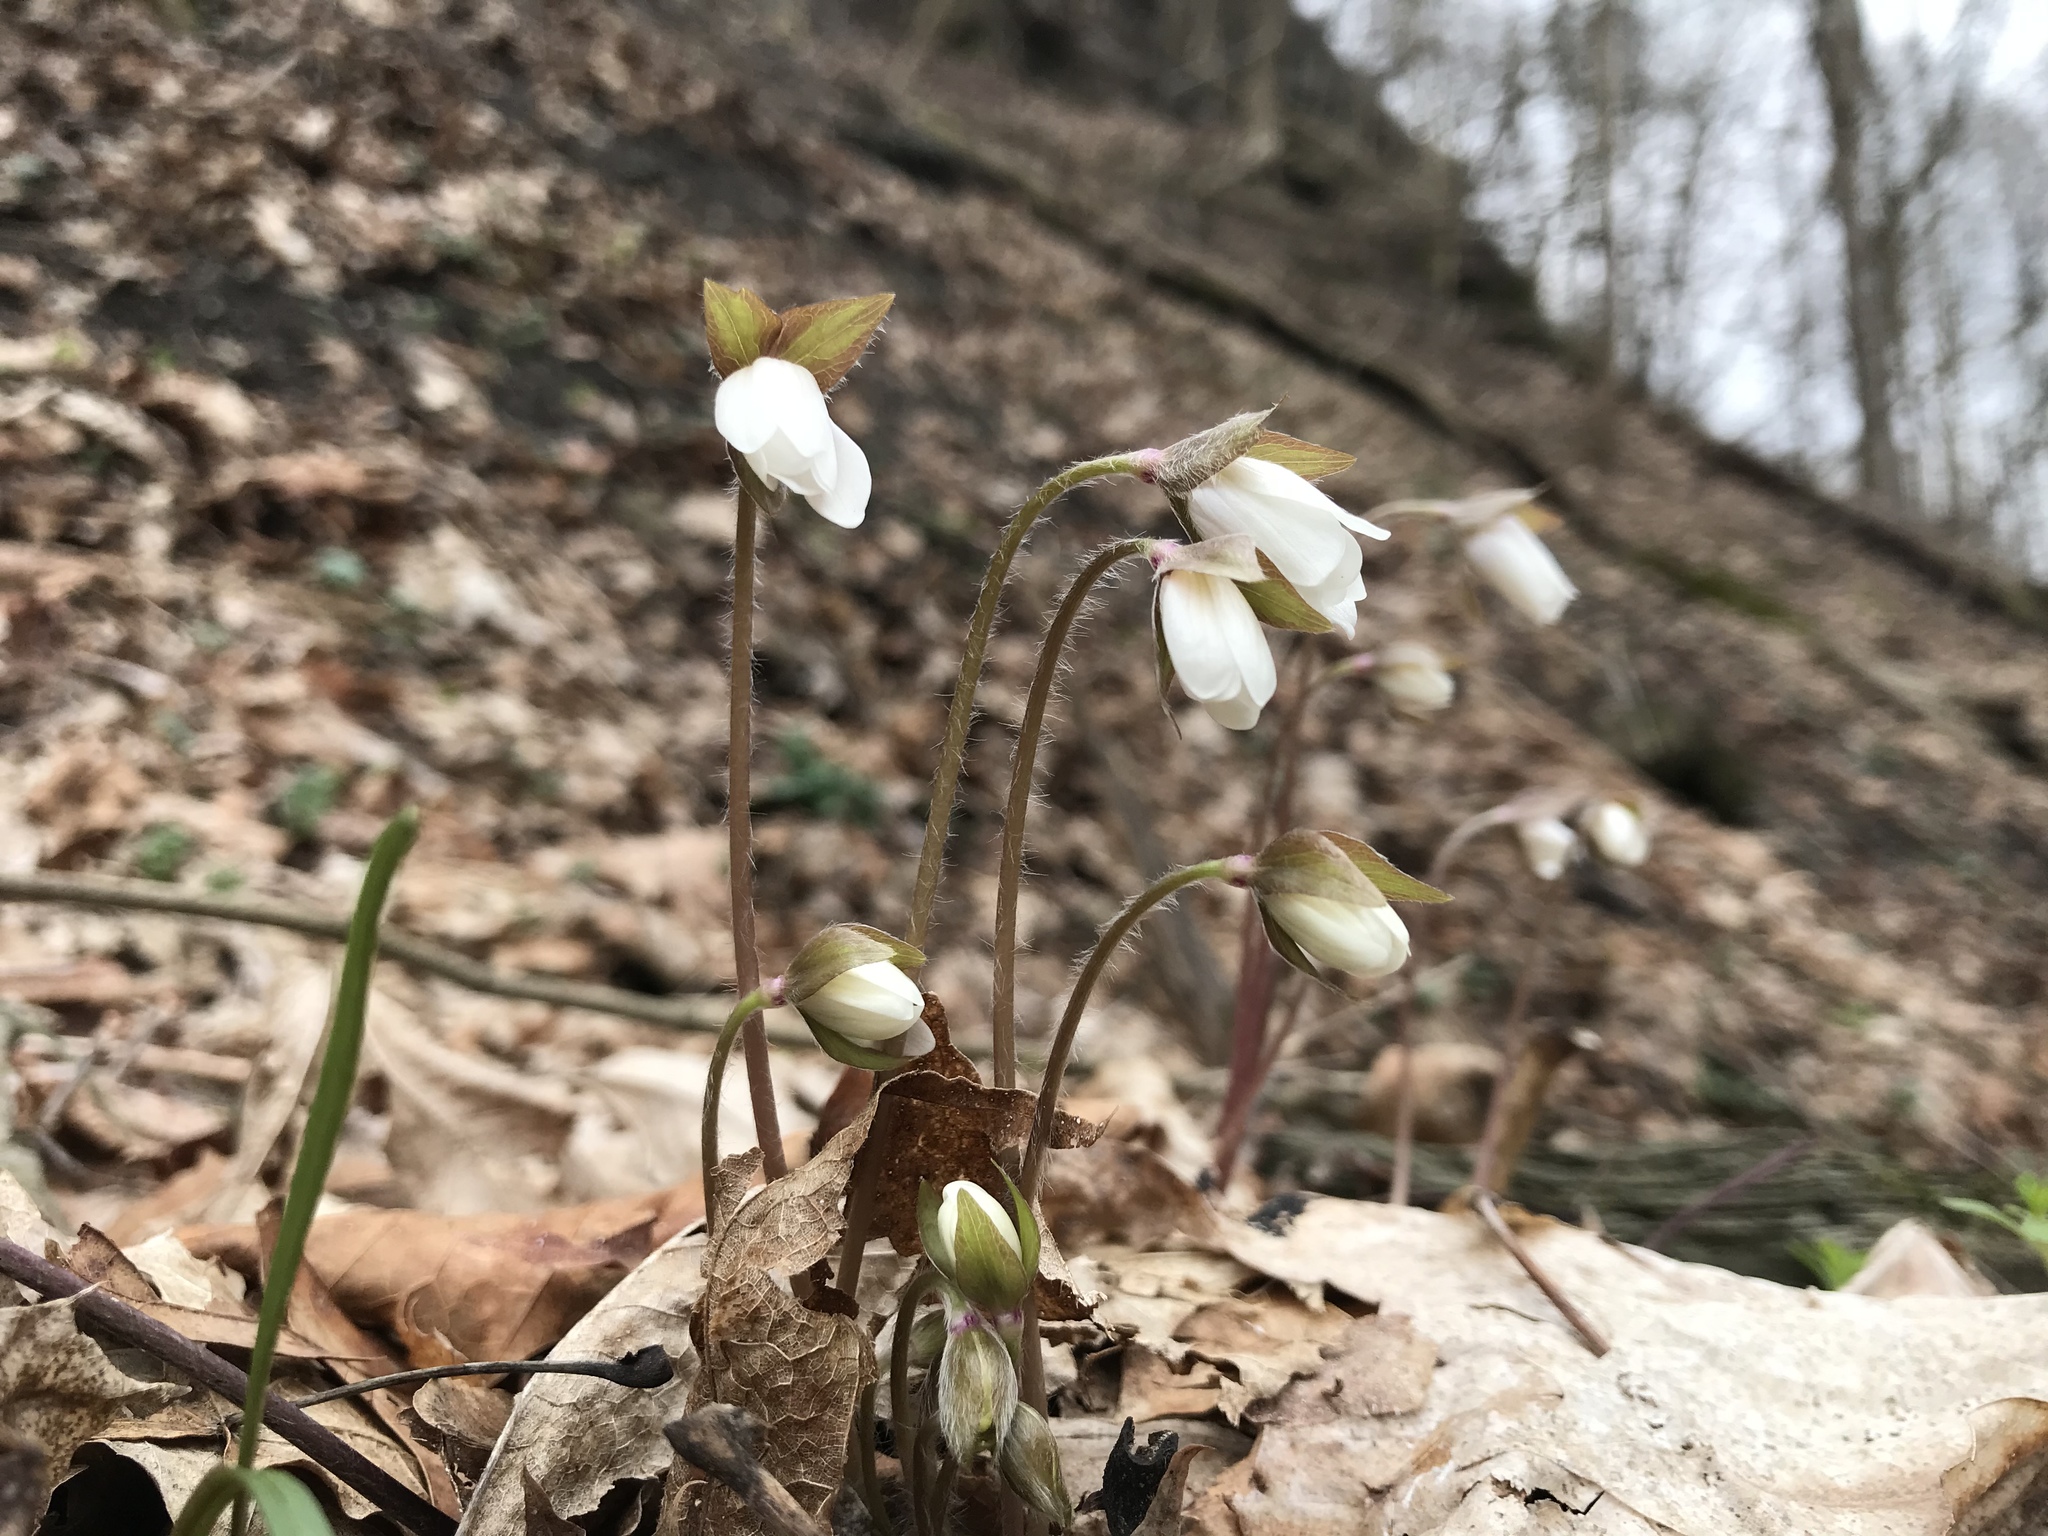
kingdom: Plantae
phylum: Tracheophyta
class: Magnoliopsida
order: Ranunculales
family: Ranunculaceae
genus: Hepatica
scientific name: Hepatica acutiloba
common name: Sharp-lobed hepatica
